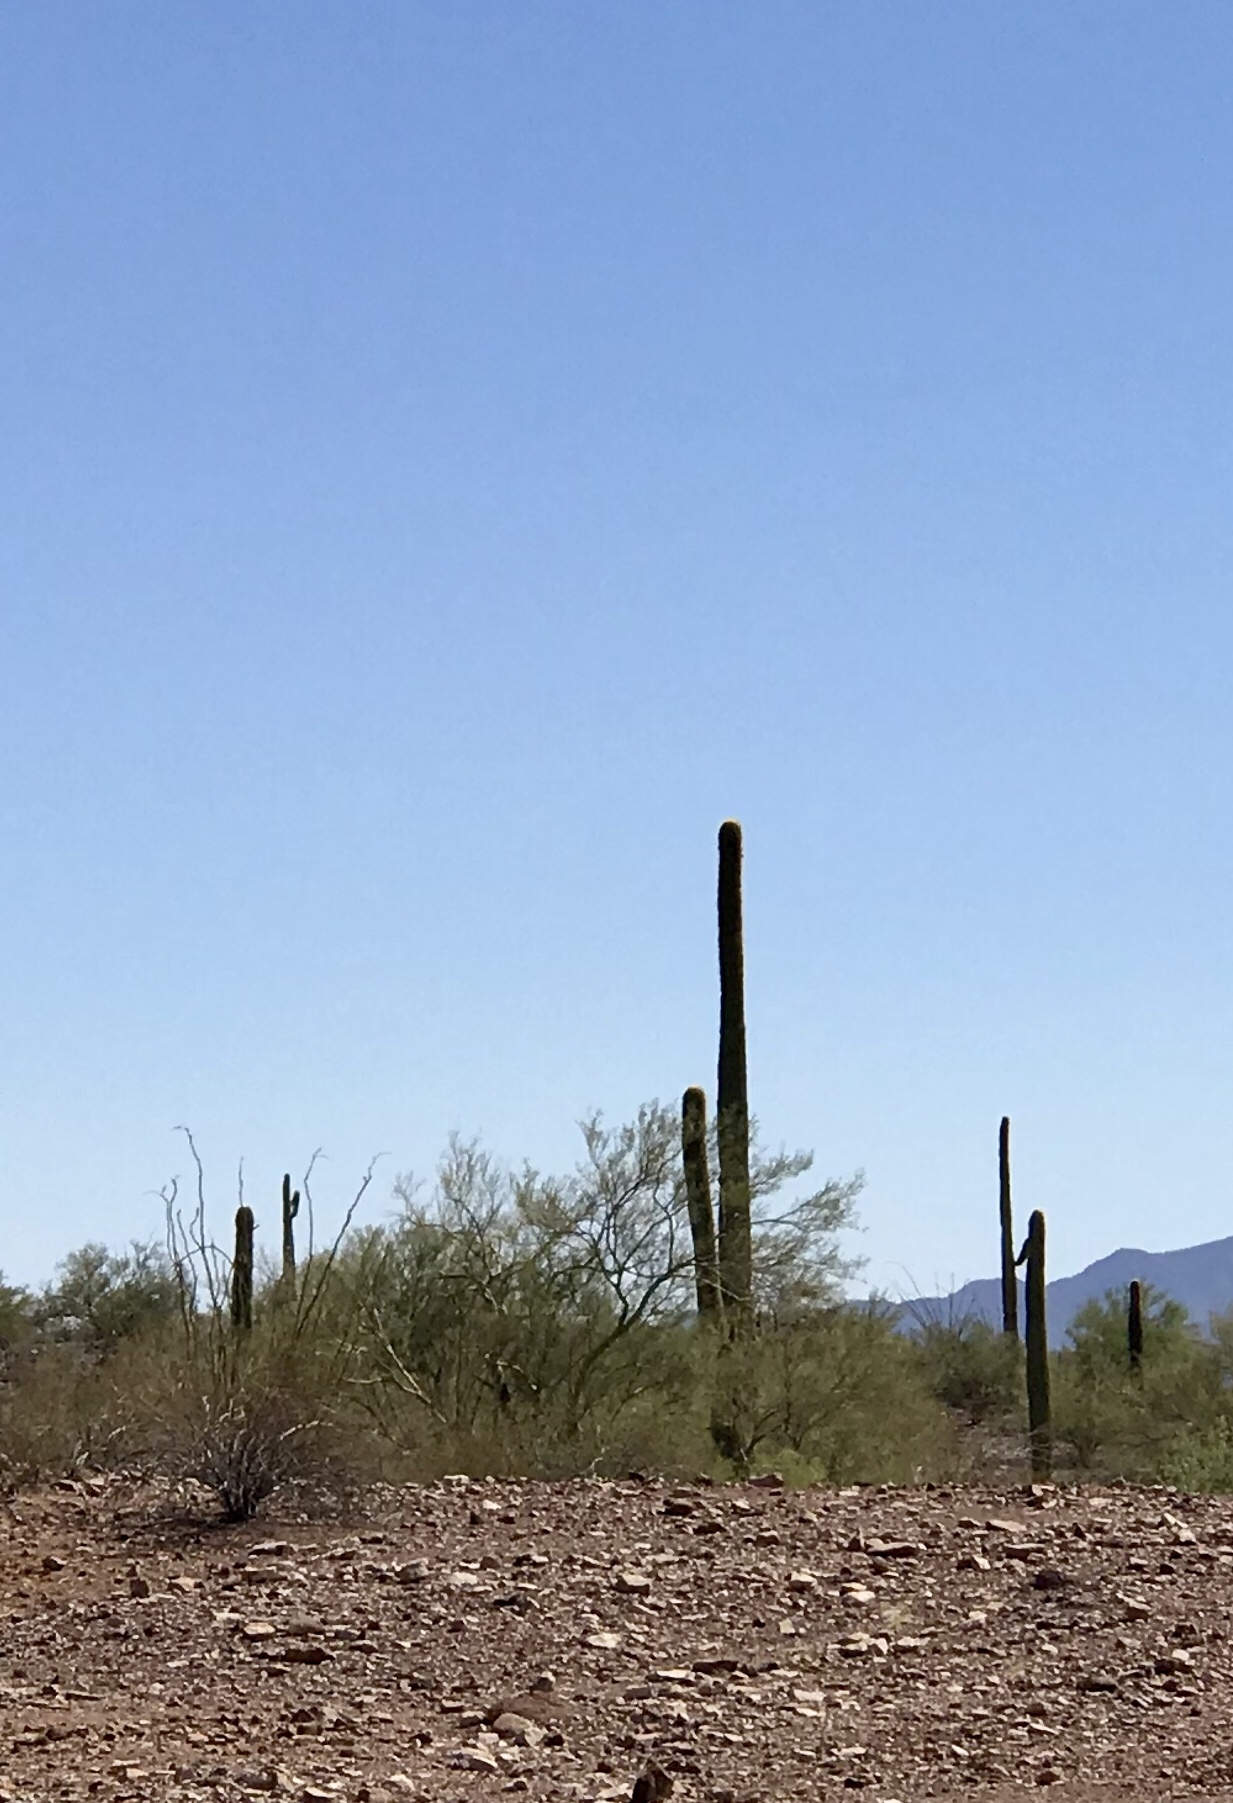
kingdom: Plantae
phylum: Tracheophyta
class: Magnoliopsida
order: Caryophyllales
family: Cactaceae
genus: Carnegiea
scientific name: Carnegiea gigantea
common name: Saguaro
